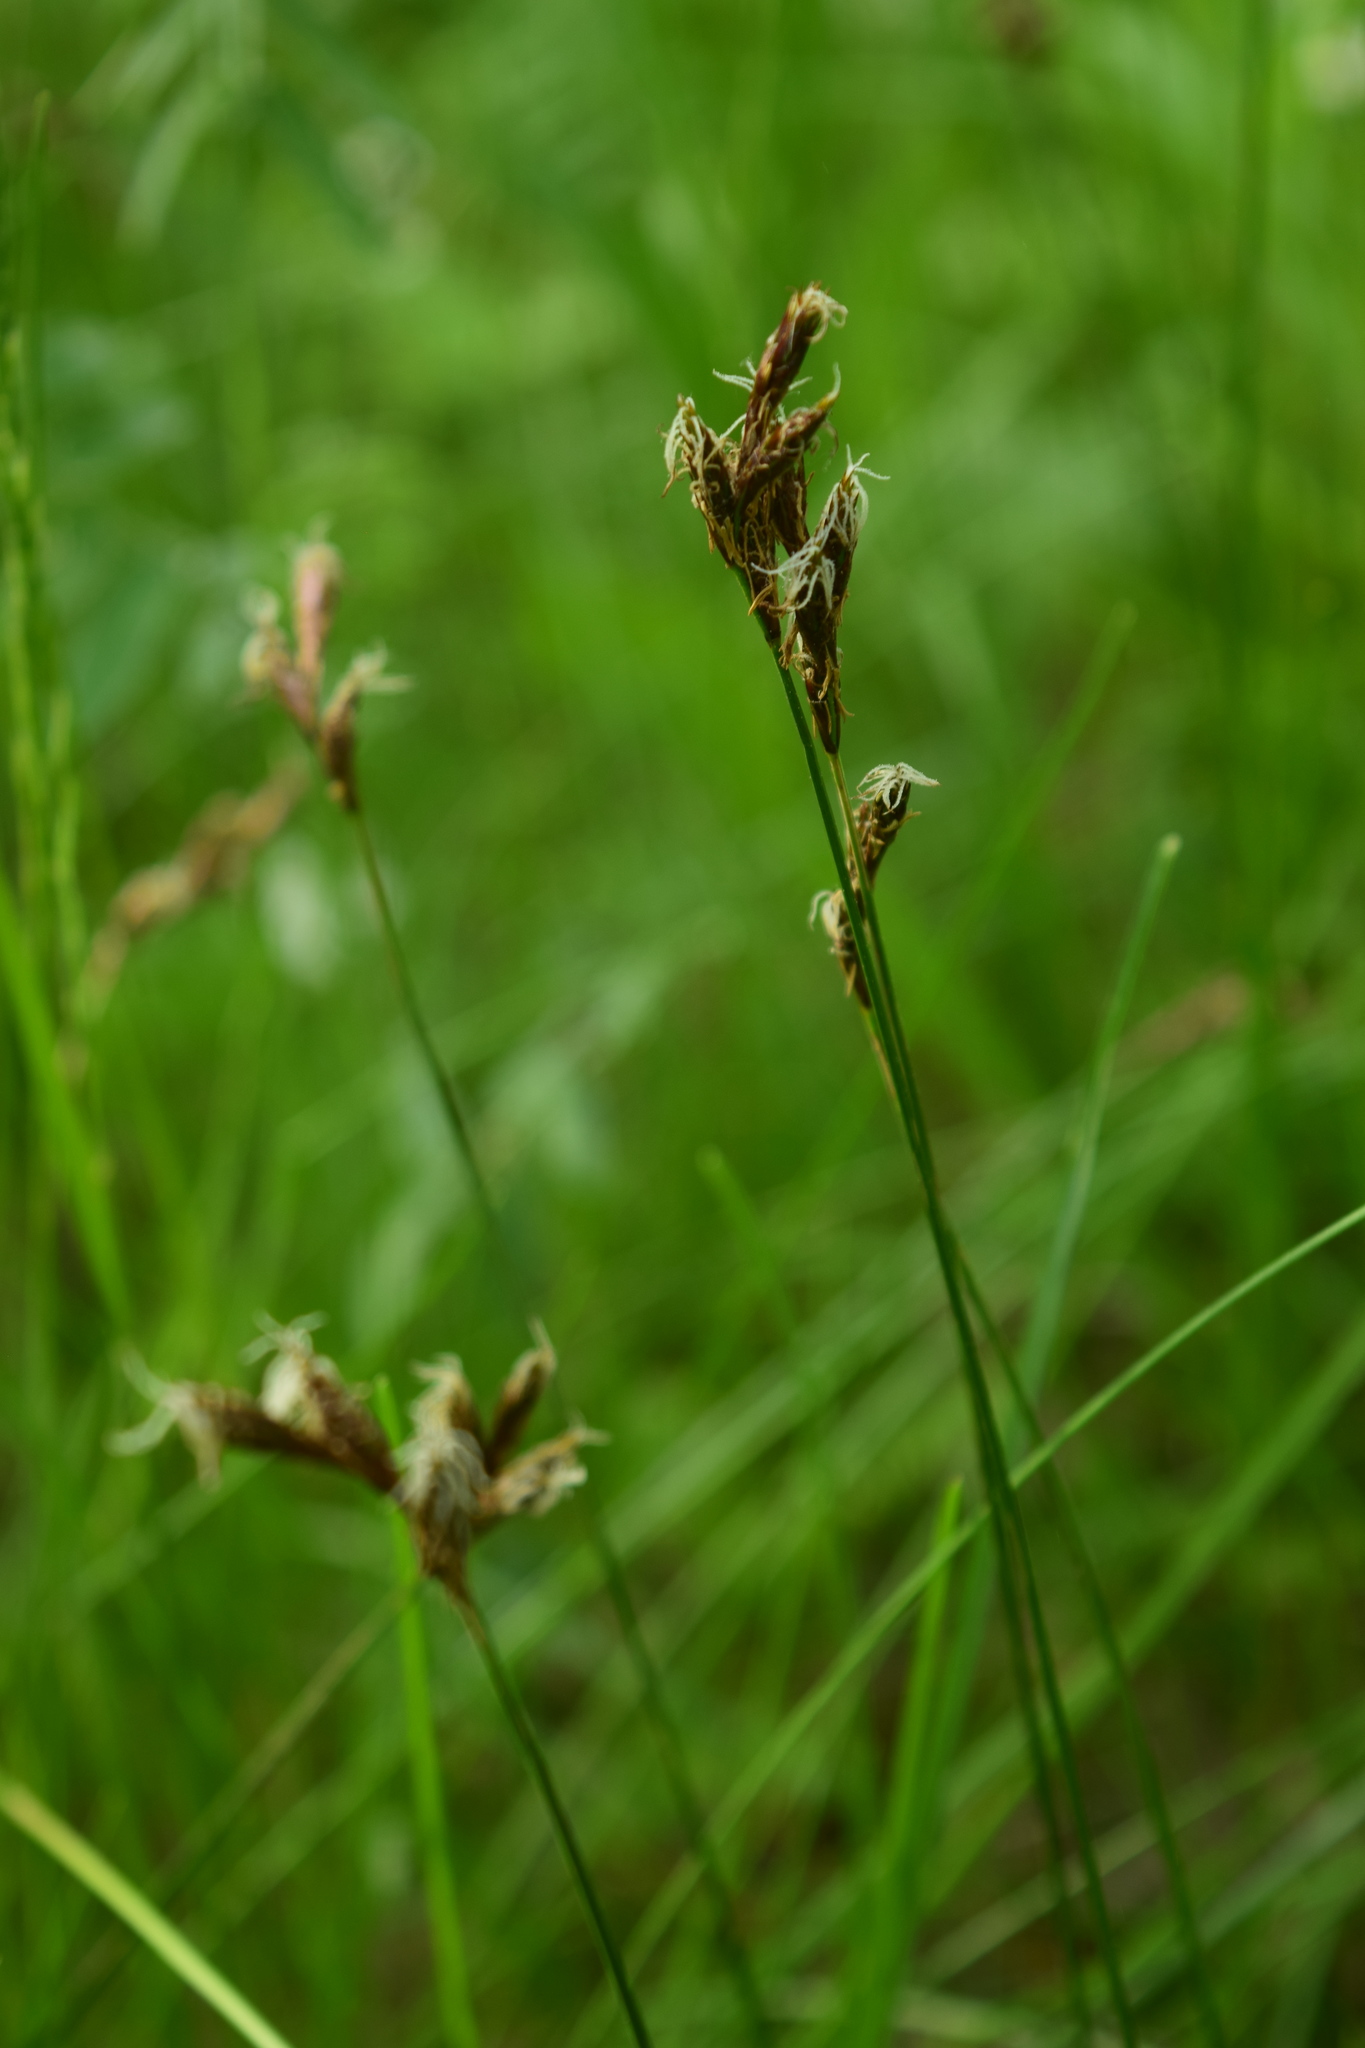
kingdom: Plantae
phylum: Tracheophyta
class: Liliopsida
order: Poales
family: Cyperaceae
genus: Carex
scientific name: Carex praecox
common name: Early sedge
